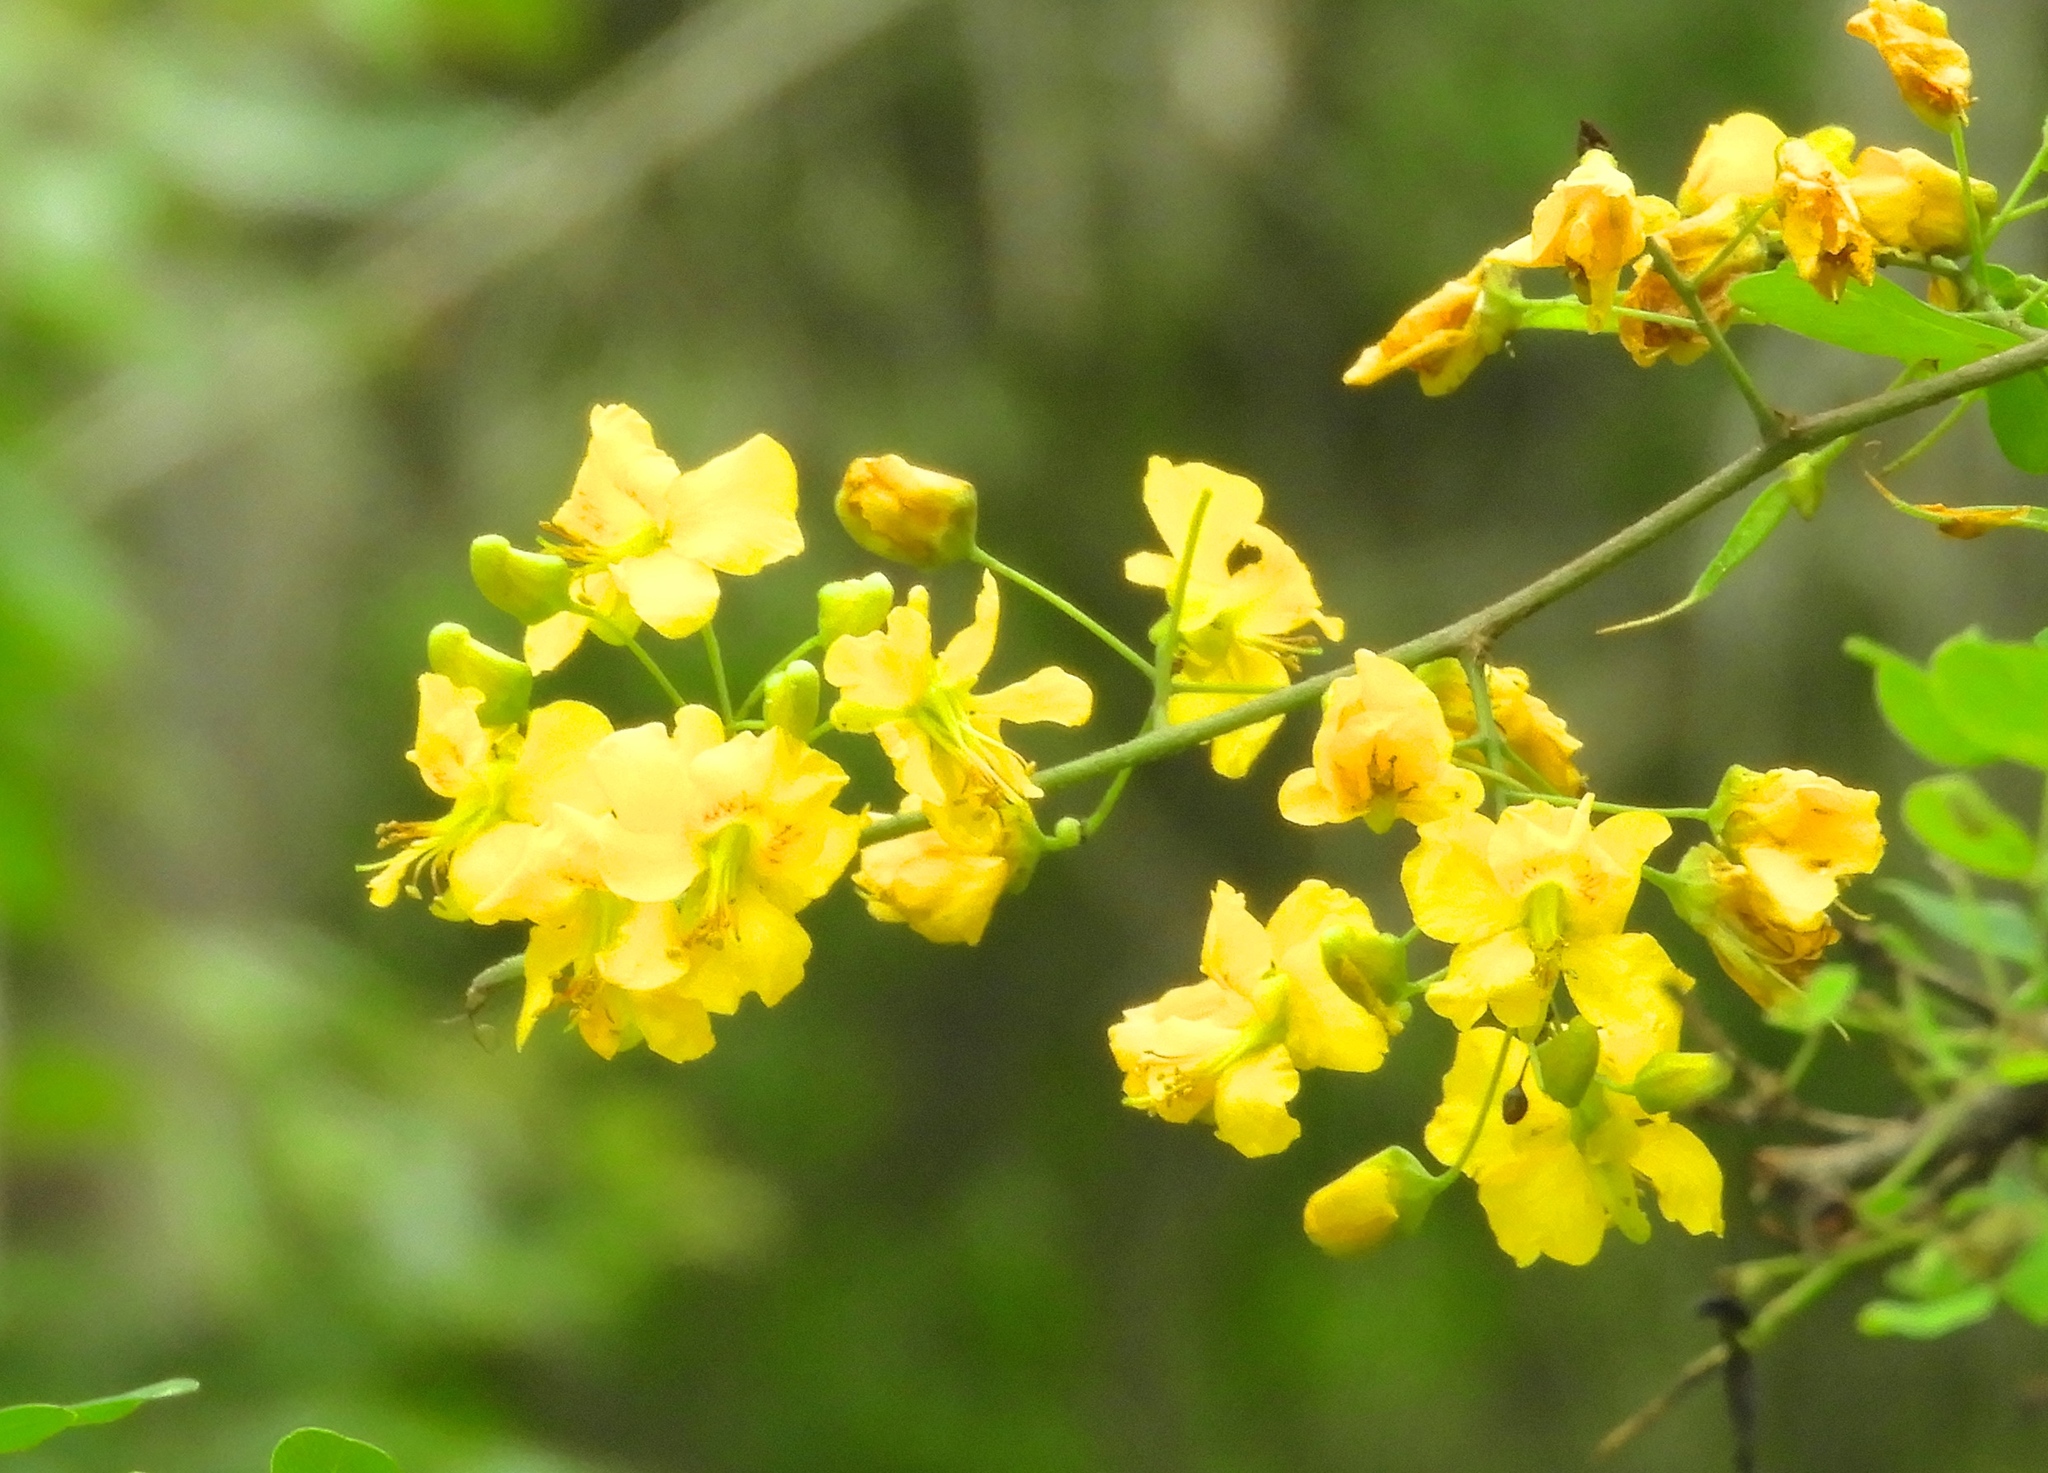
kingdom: Plantae
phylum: Tracheophyta
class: Magnoliopsida
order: Fabales
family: Fabaceae
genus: Haematoxylum
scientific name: Haematoxylum brasiletto
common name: Peachwood
